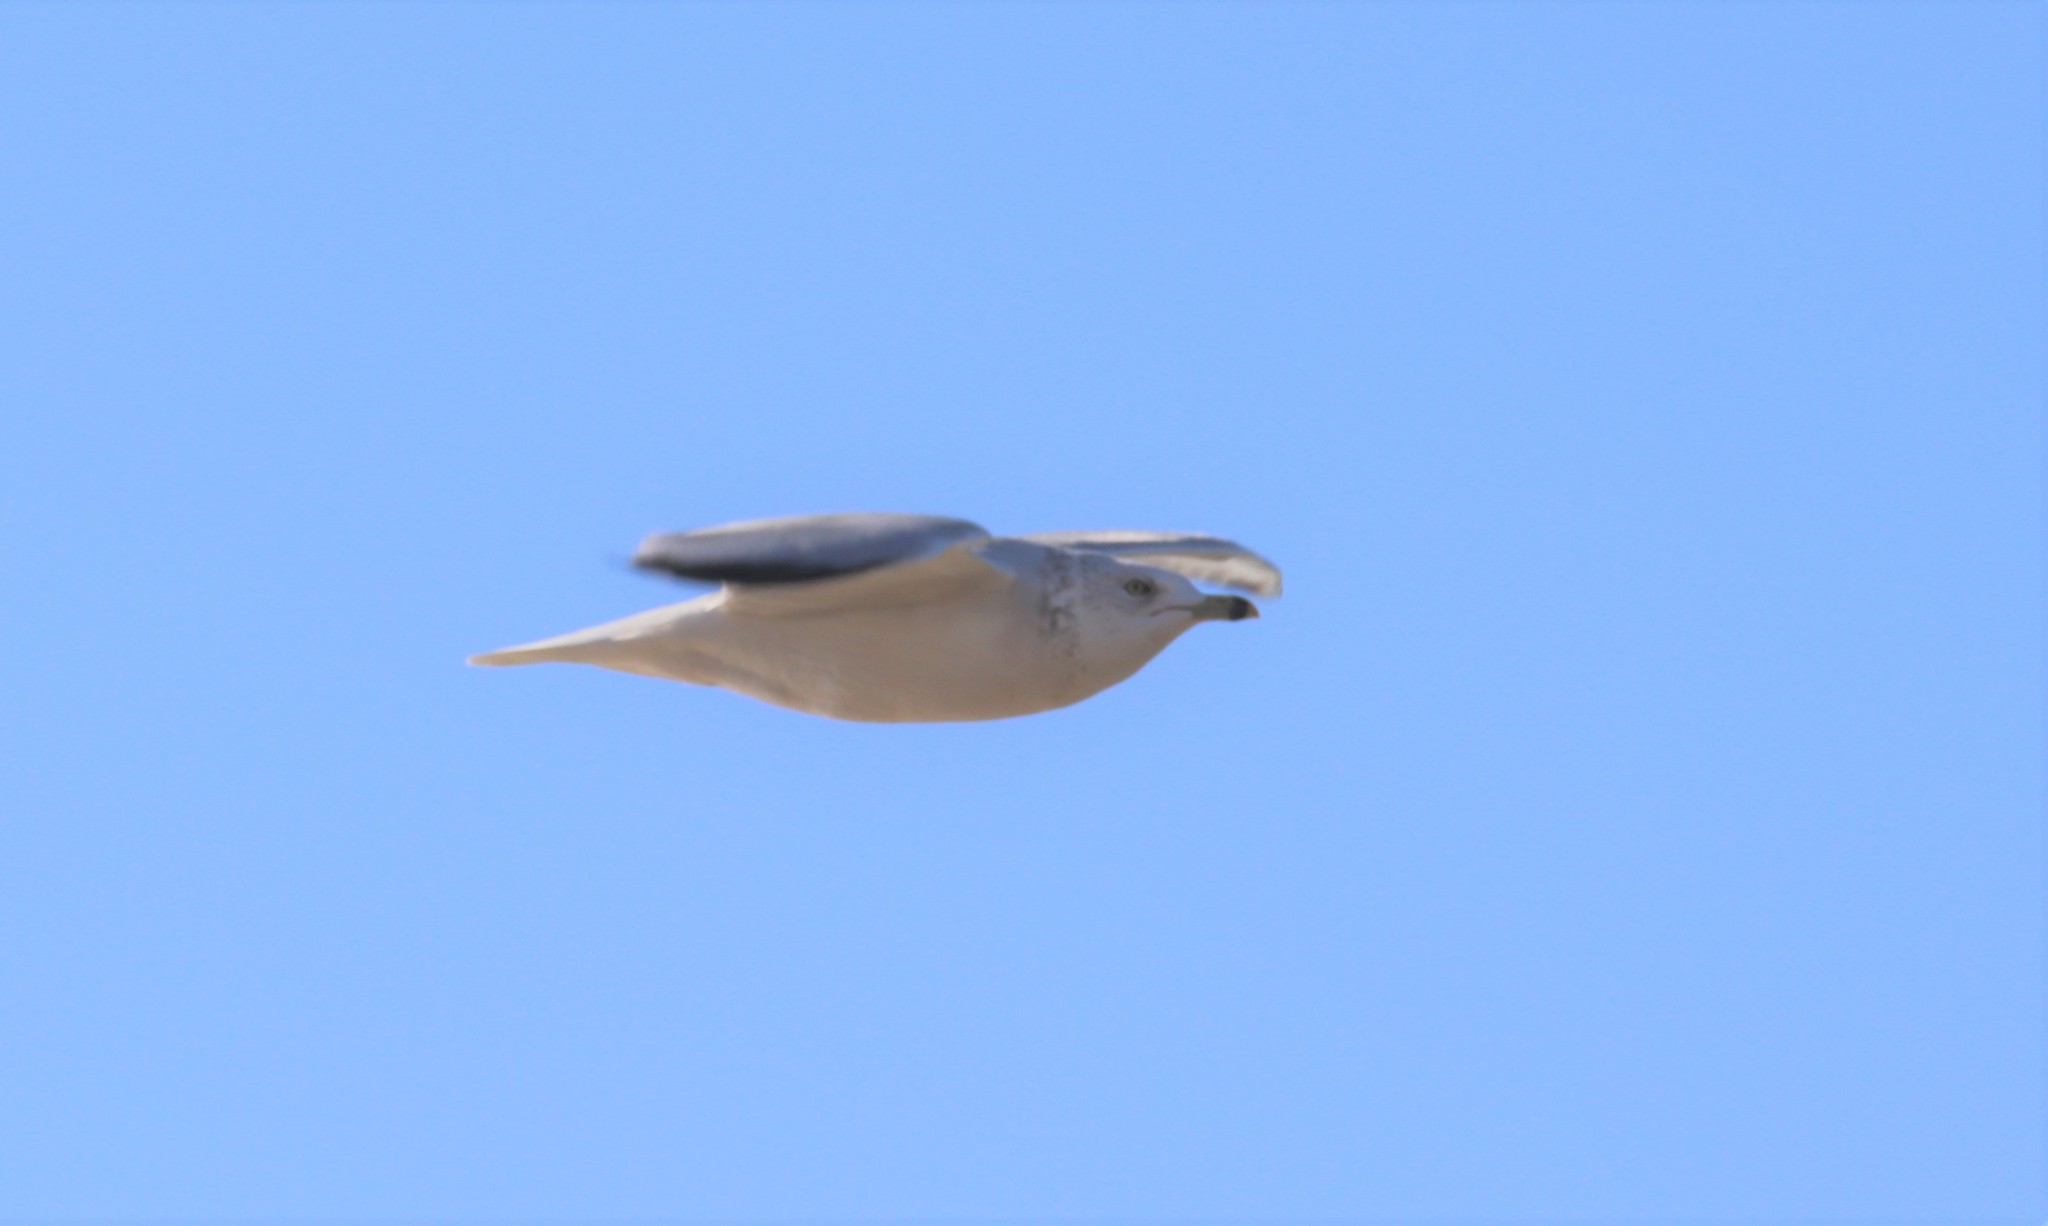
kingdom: Animalia
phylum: Chordata
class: Aves
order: Charadriiformes
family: Laridae
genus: Larus
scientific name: Larus delawarensis
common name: Ring-billed gull
